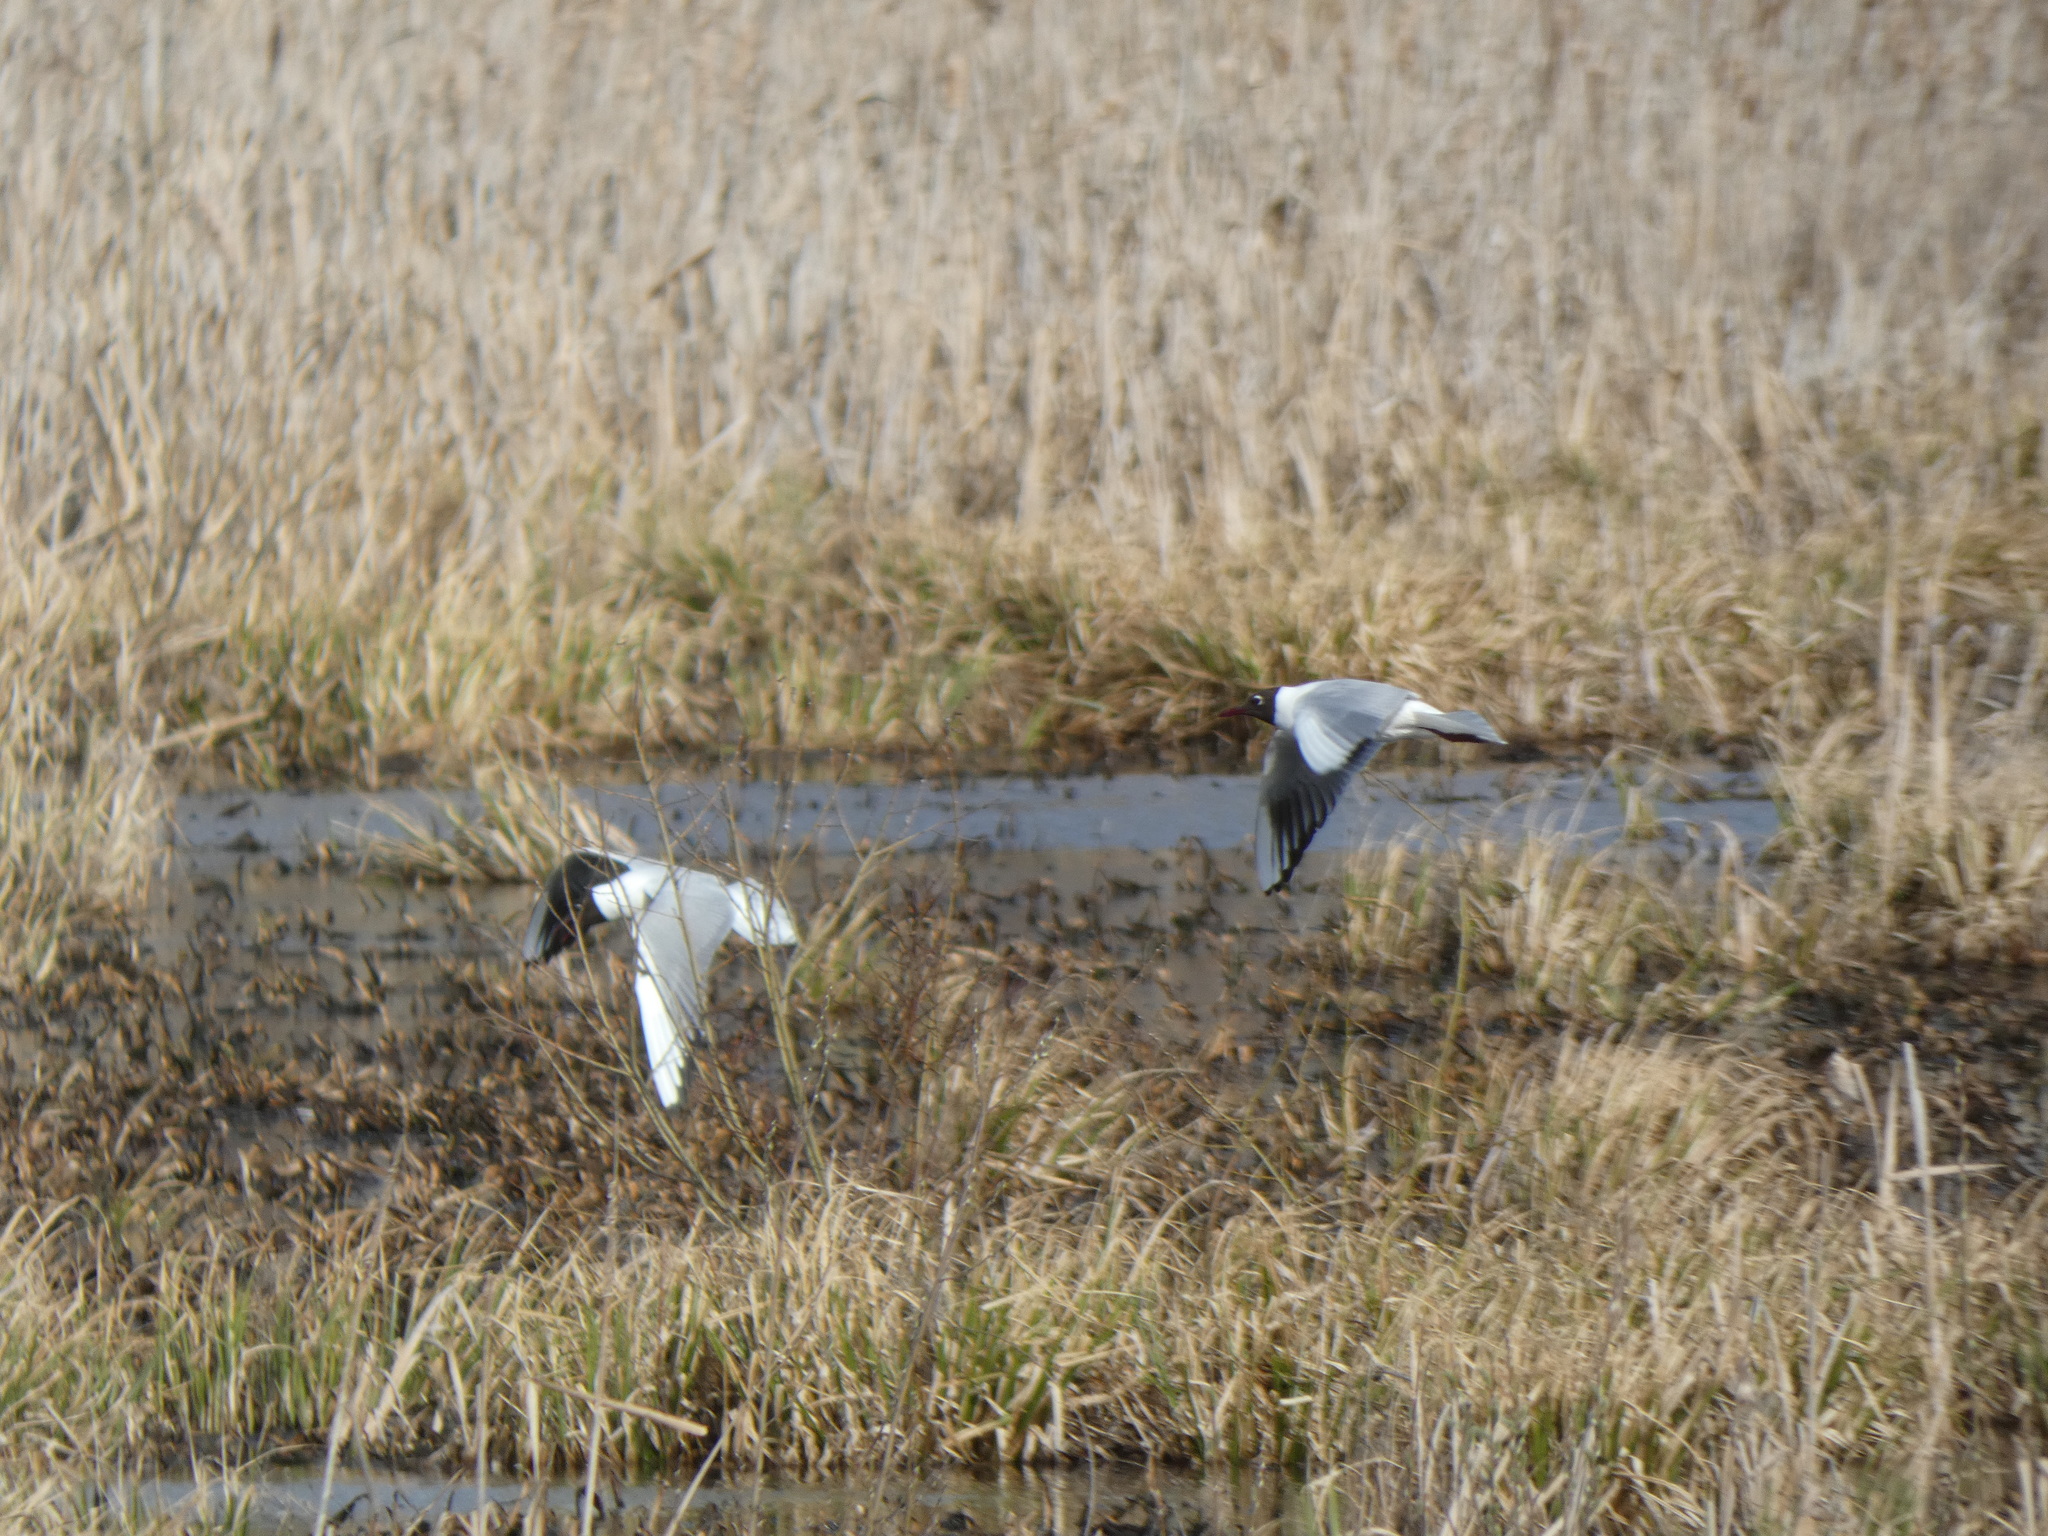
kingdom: Animalia
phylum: Chordata
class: Aves
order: Charadriiformes
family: Laridae
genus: Chroicocephalus
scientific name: Chroicocephalus ridibundus
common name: Black-headed gull
